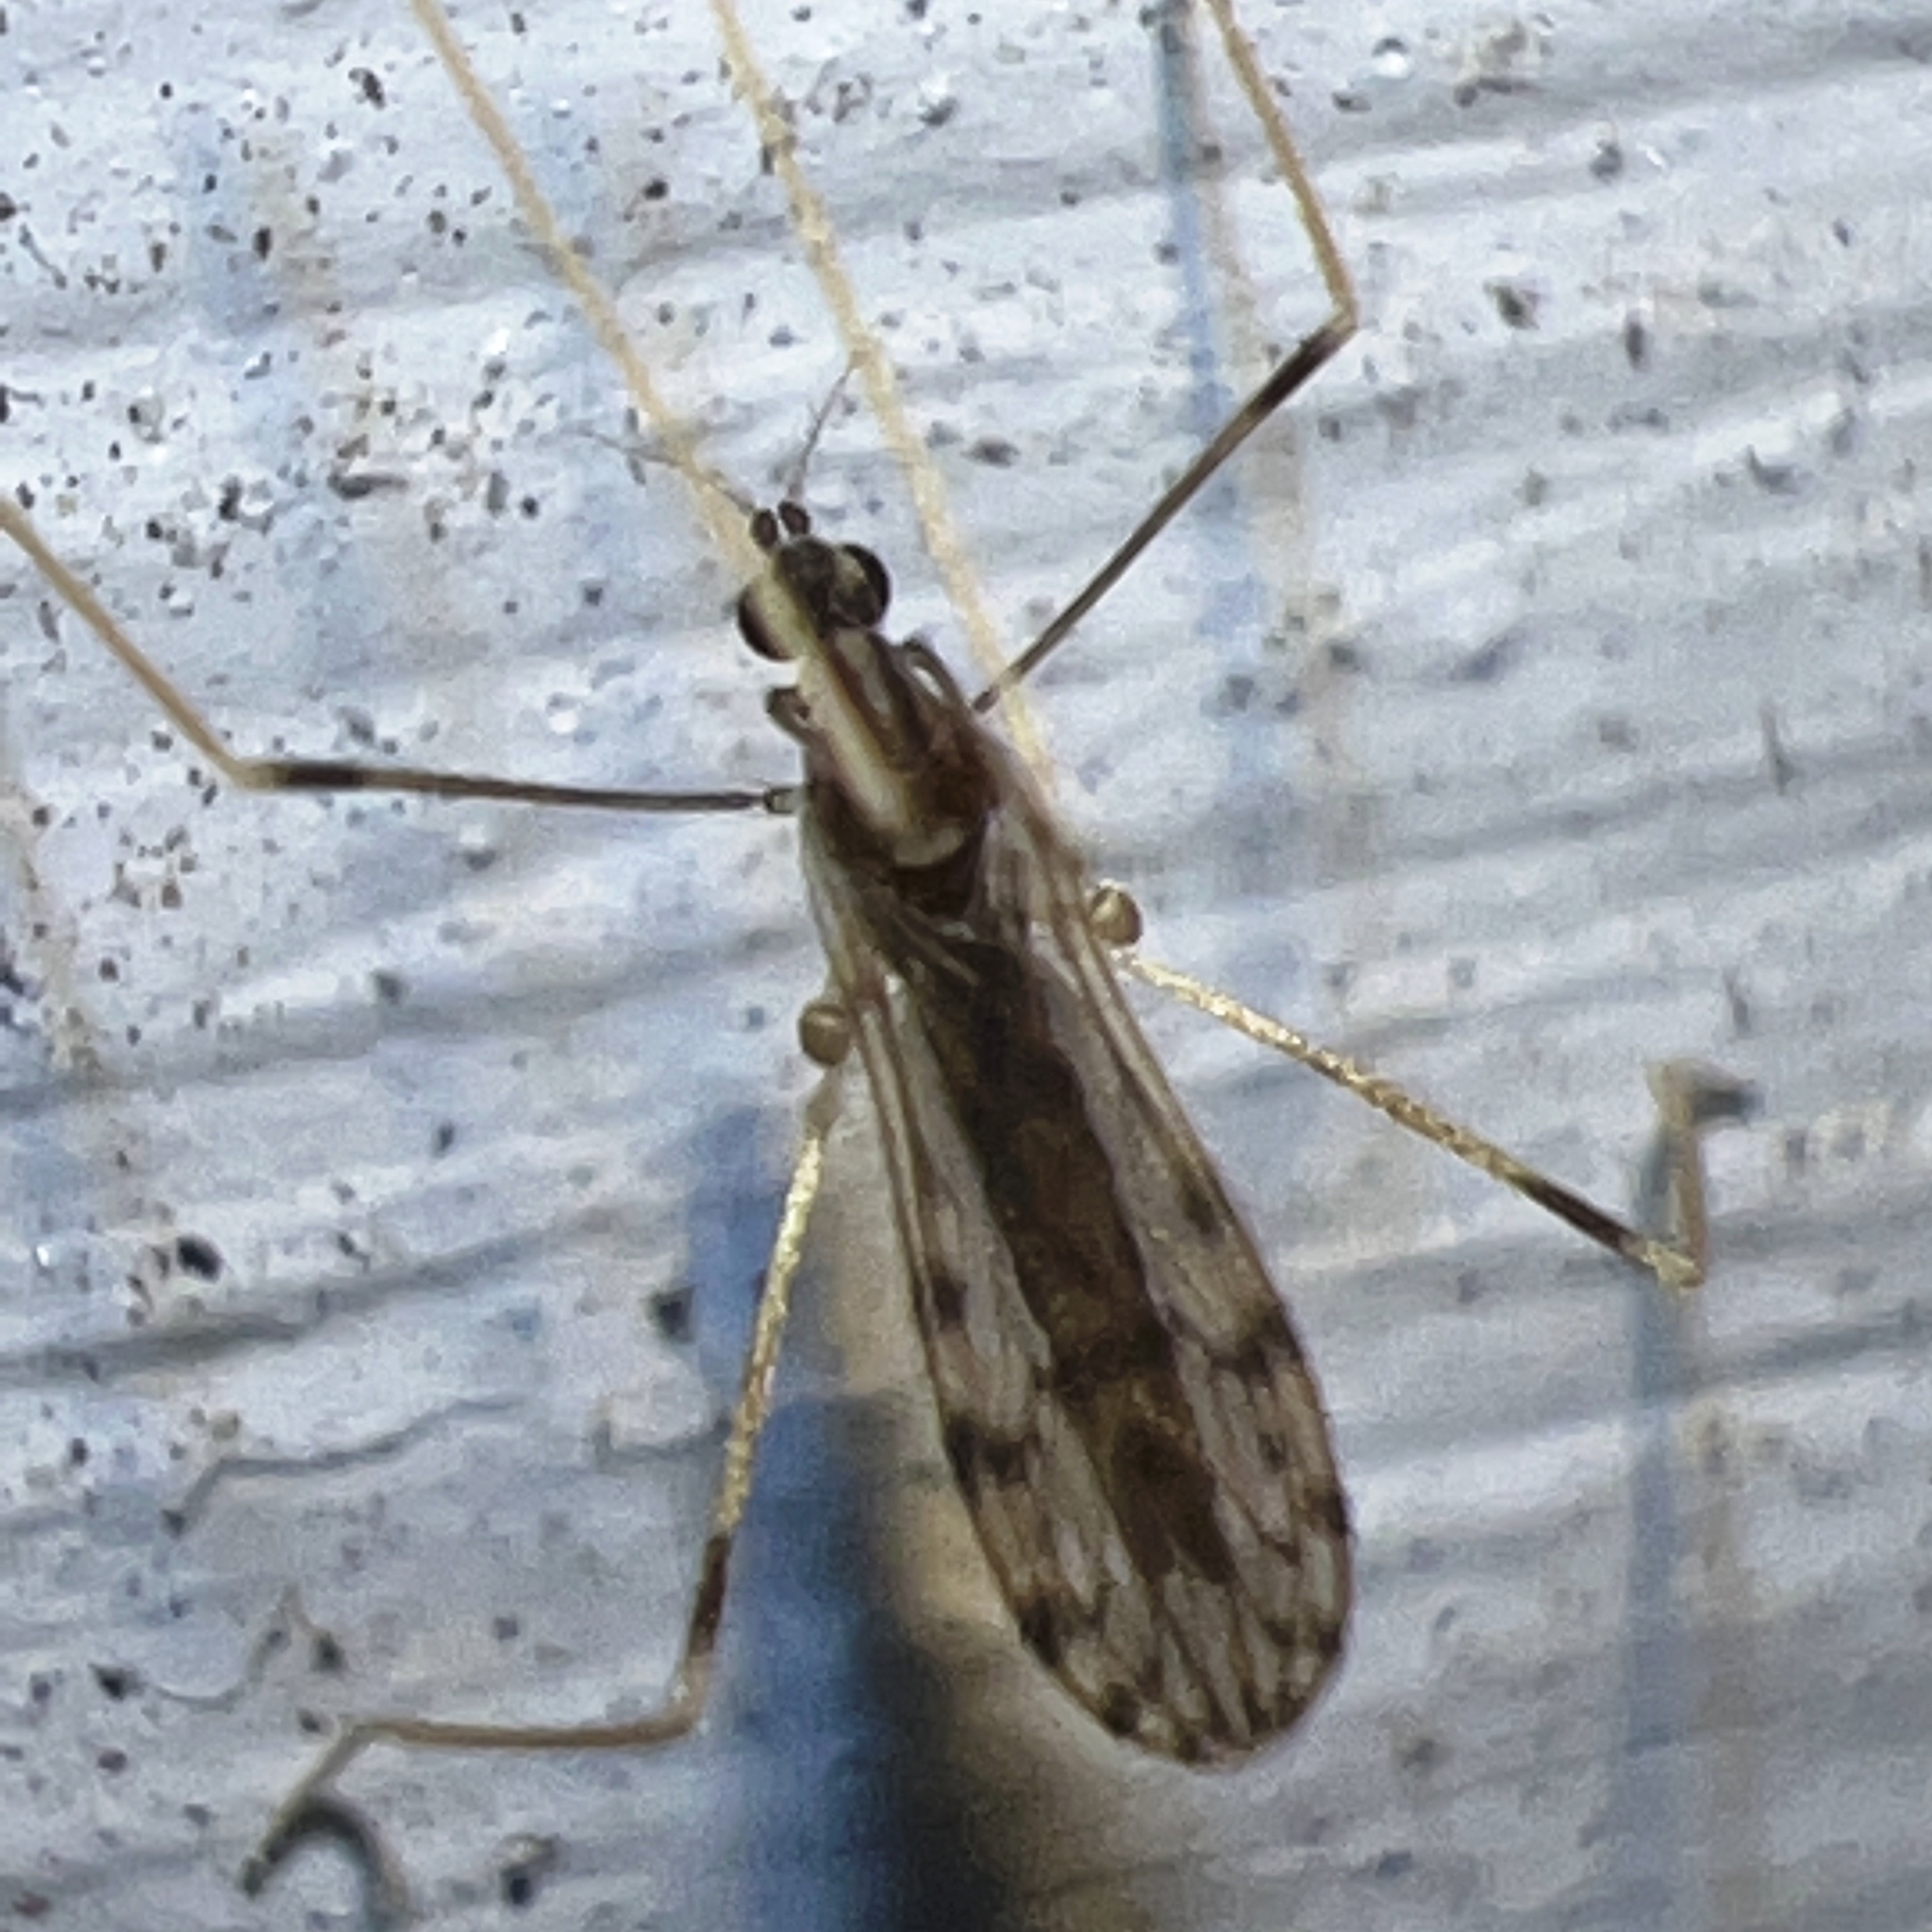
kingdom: Animalia
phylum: Arthropoda
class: Insecta
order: Diptera
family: Limoniidae
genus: Erioptera
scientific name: Erioptera parva
